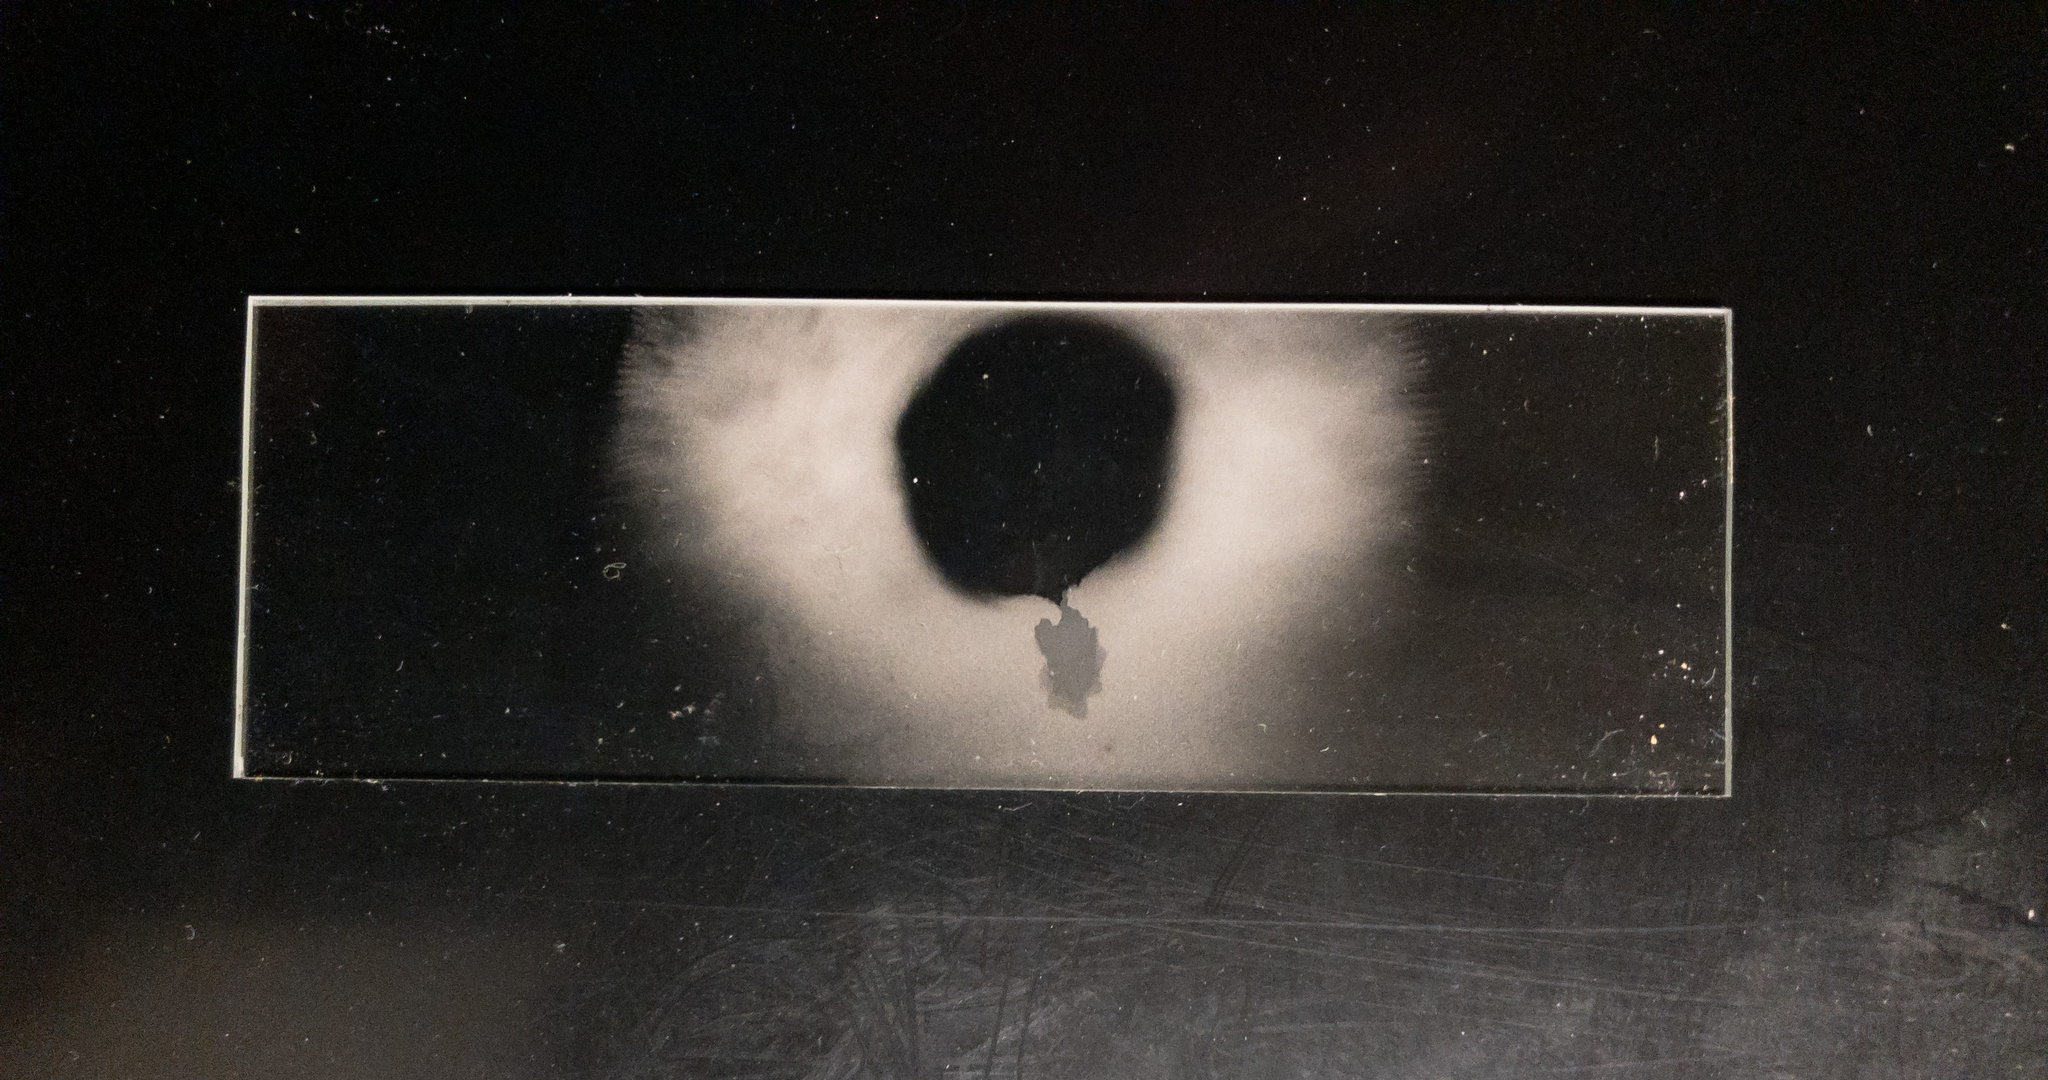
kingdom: Fungi
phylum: Basidiomycota
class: Agaricomycetes
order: Agaricales
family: Tricholomataceae
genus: Collybia
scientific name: Collybia
